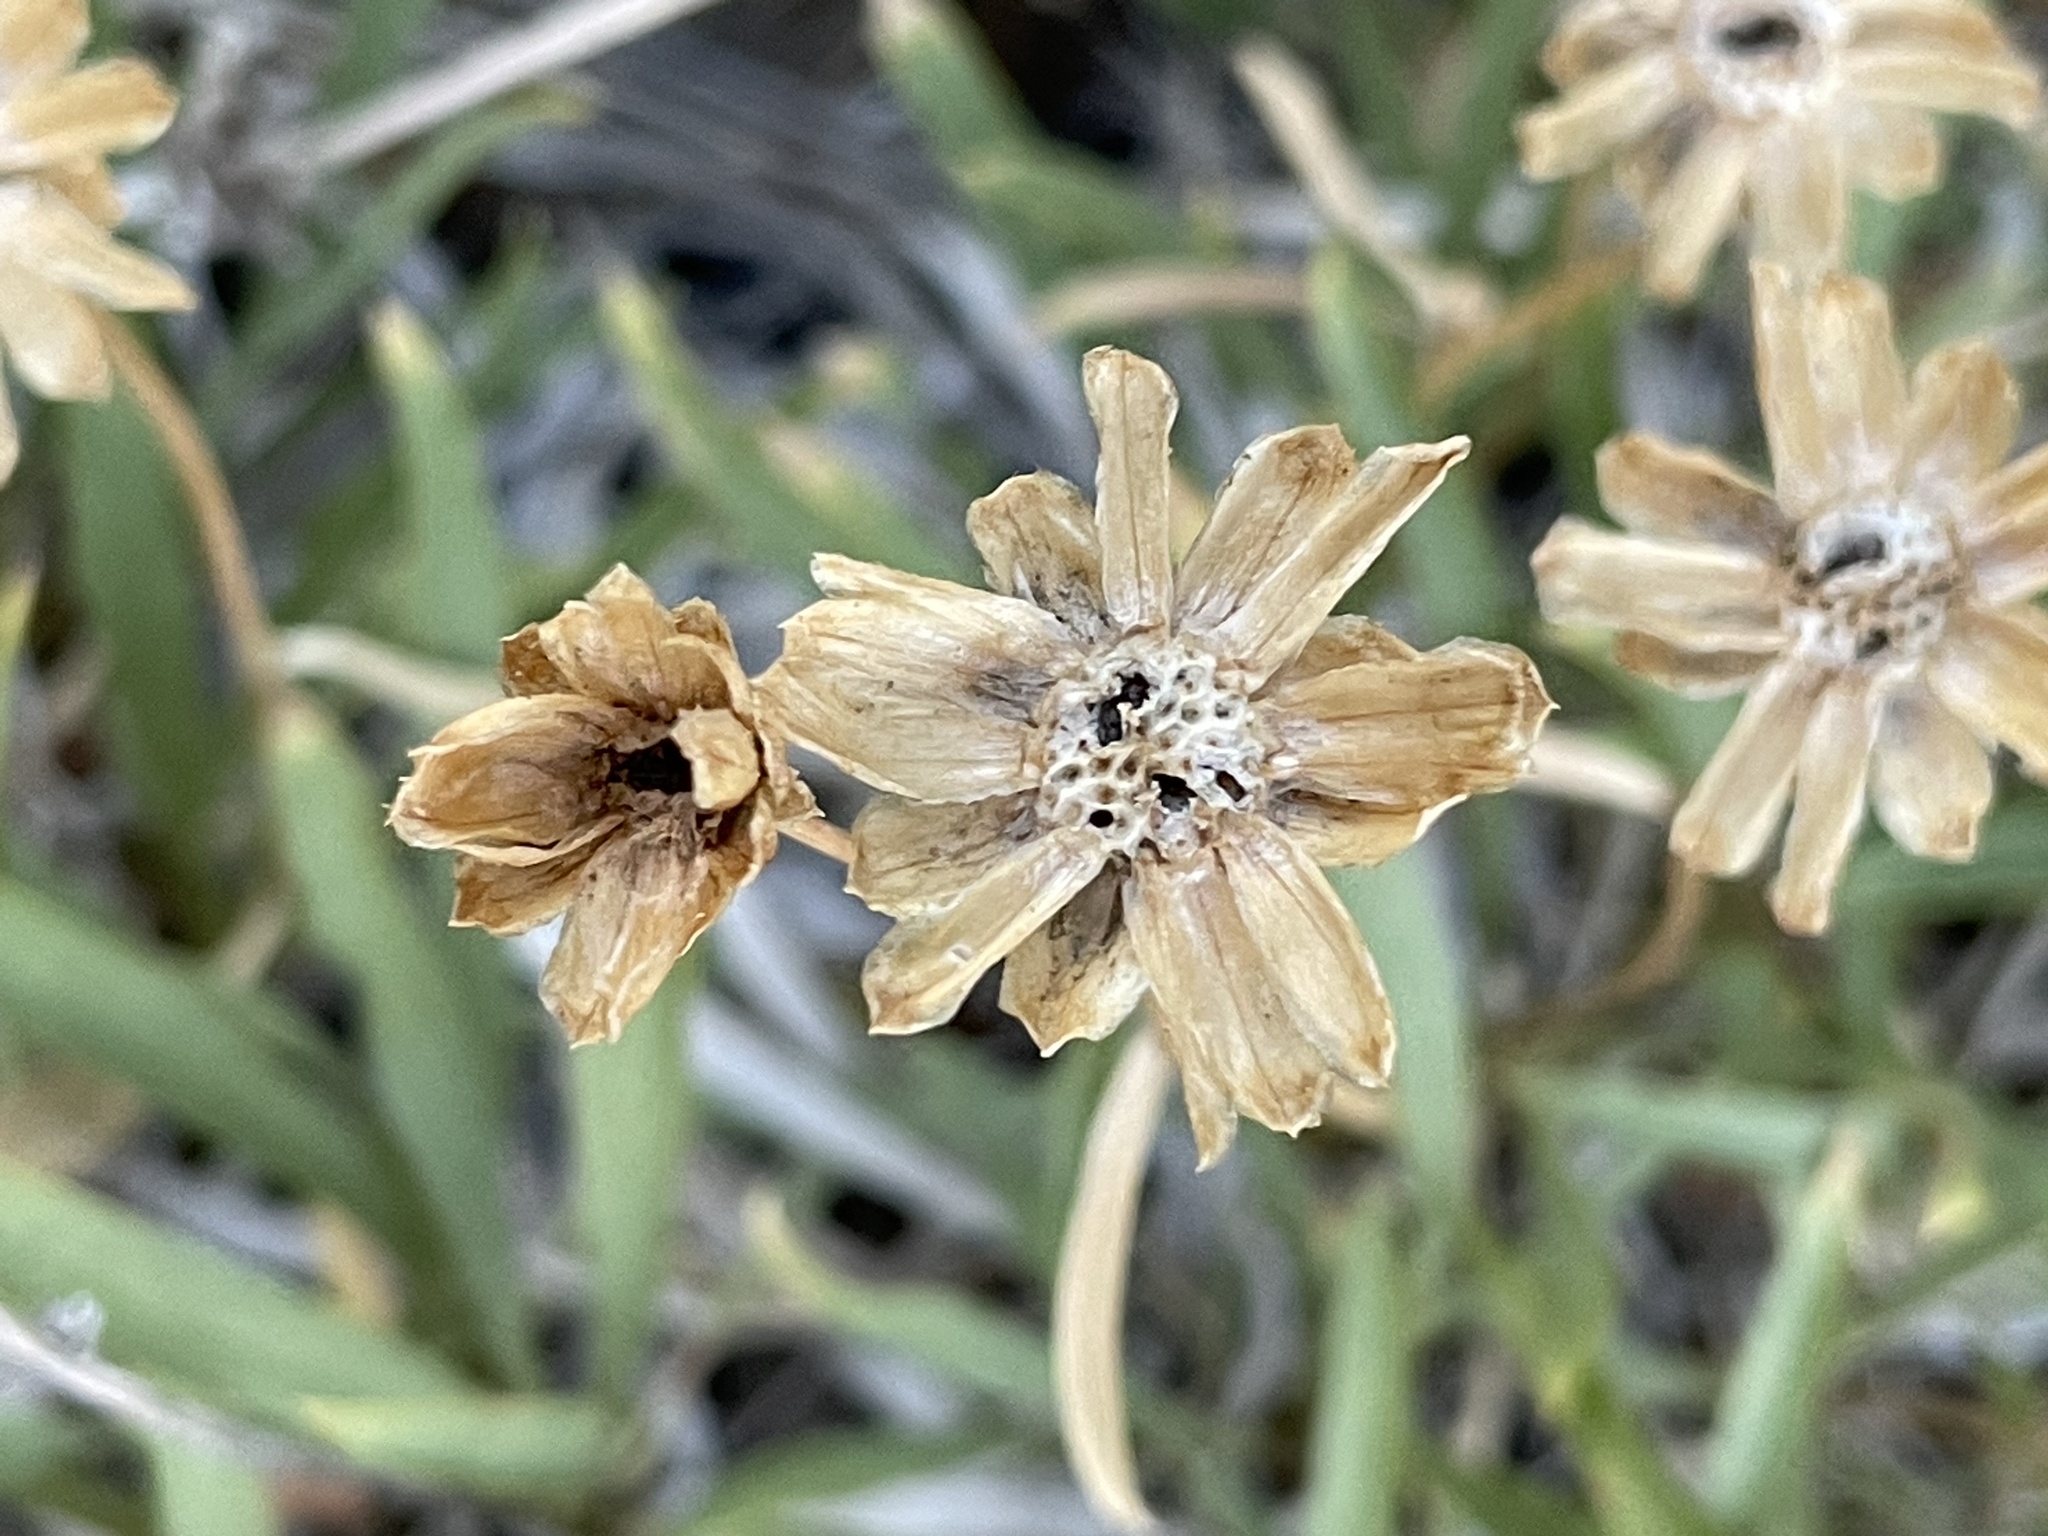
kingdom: Plantae
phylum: Tracheophyta
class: Magnoliopsida
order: Asterales
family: Asteraceae
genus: Stenotus
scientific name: Stenotus armerioides
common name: Thrifty goldenweed
